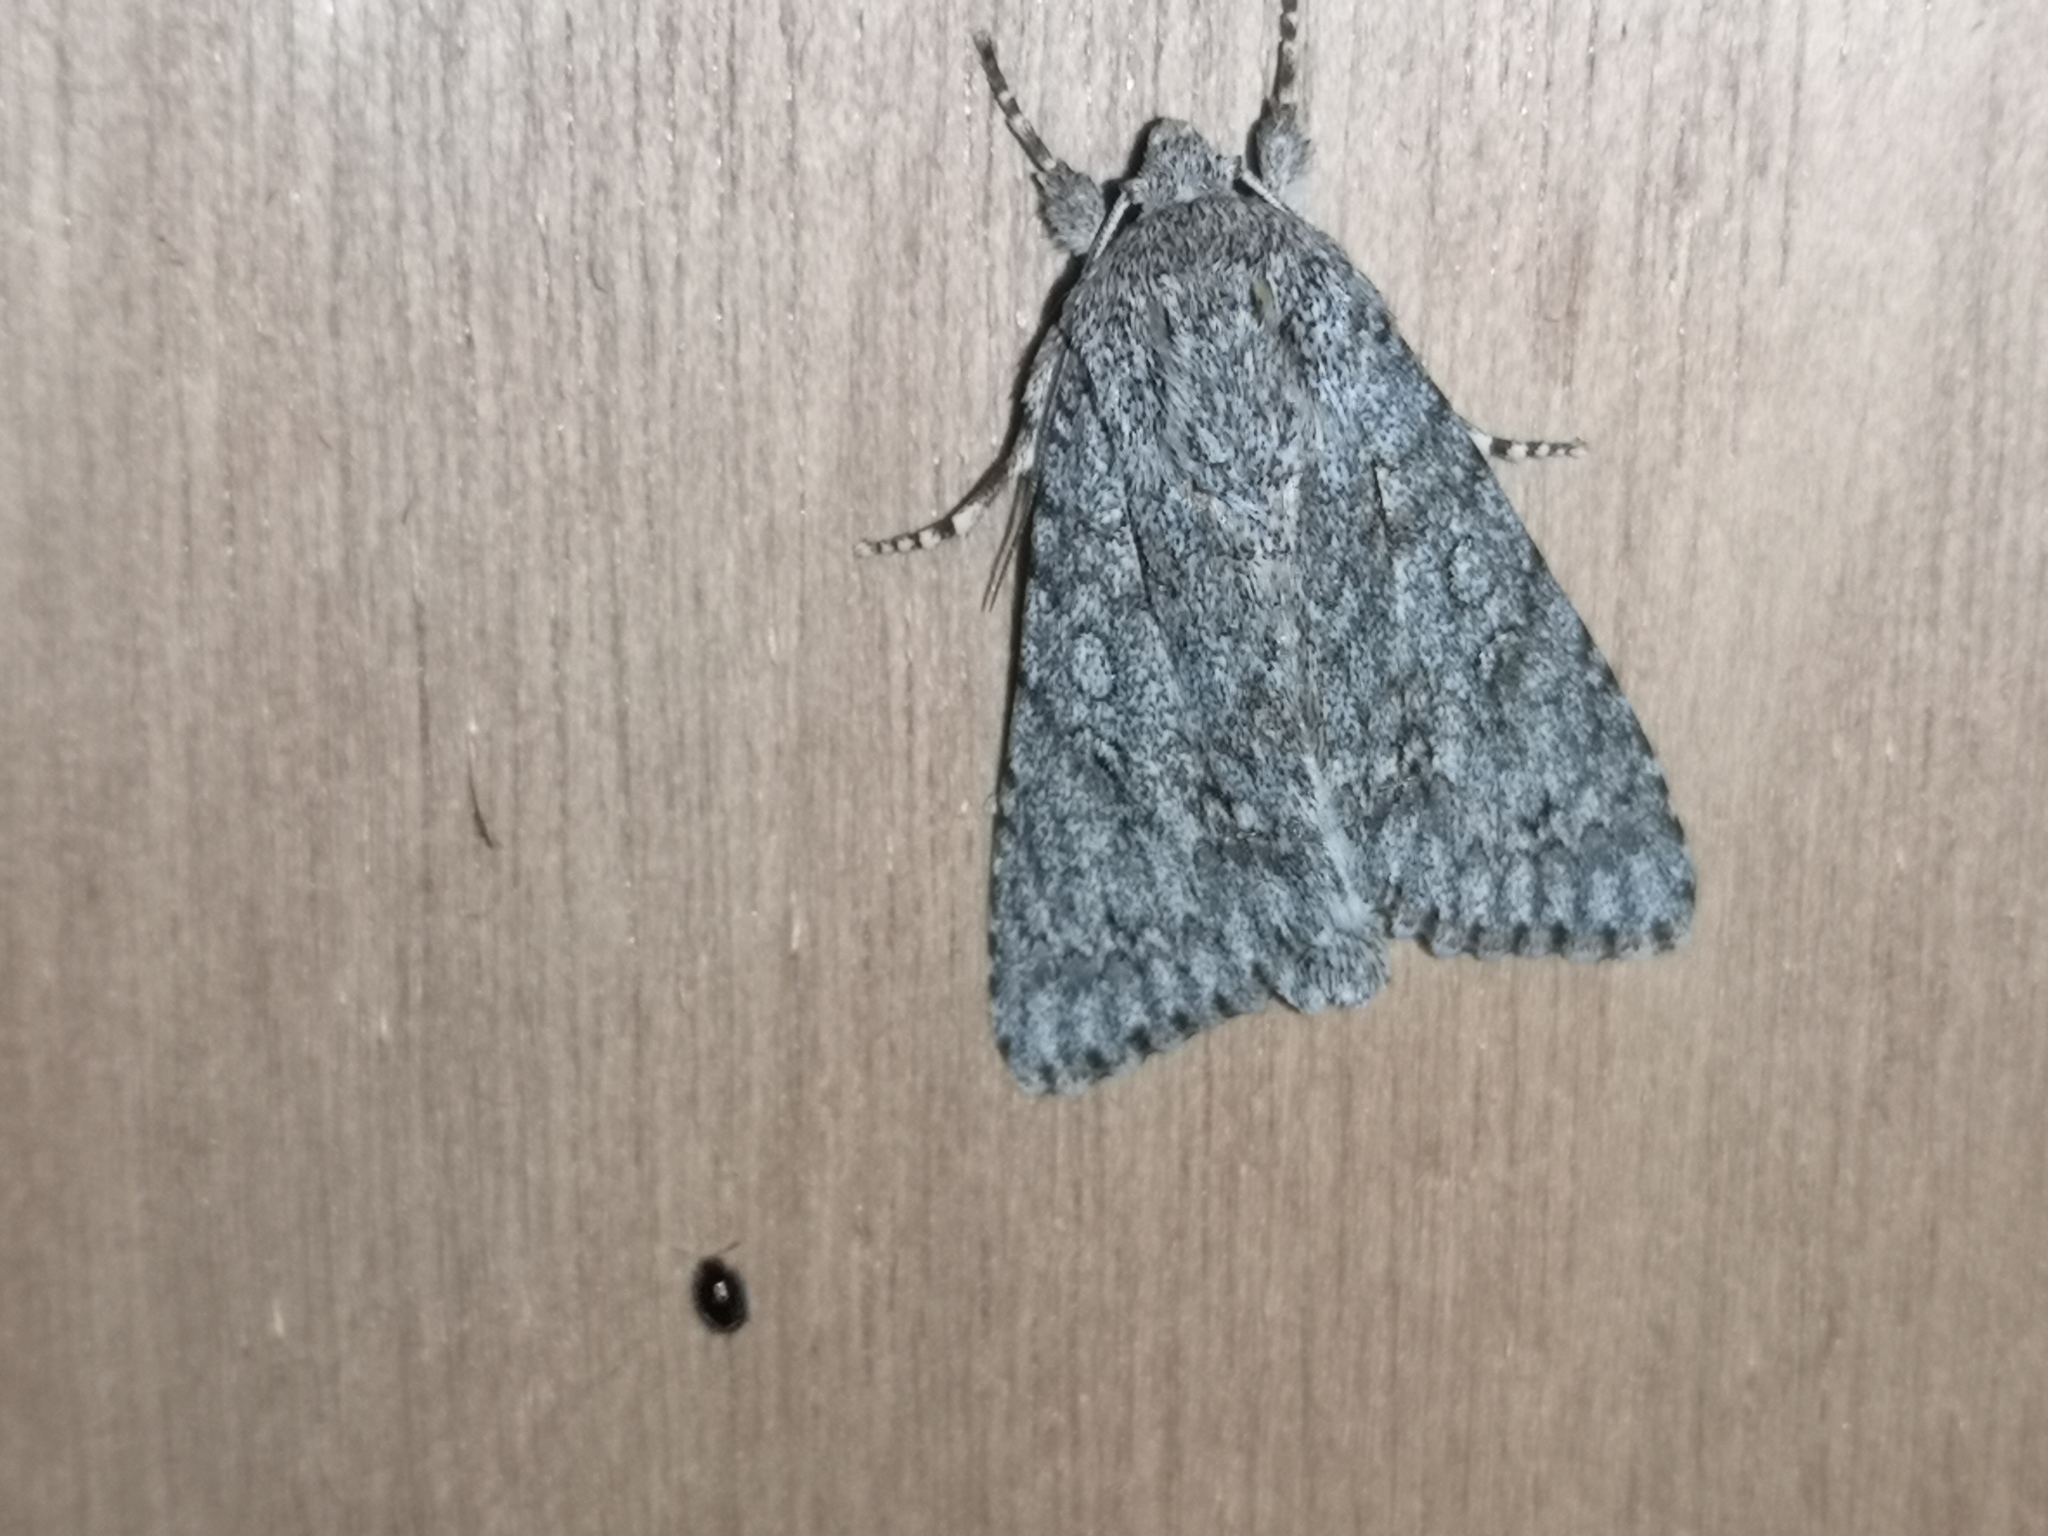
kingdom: Animalia
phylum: Arthropoda
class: Insecta
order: Lepidoptera
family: Noctuidae
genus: Acronicta
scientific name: Acronicta aceris
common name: Sycamore
